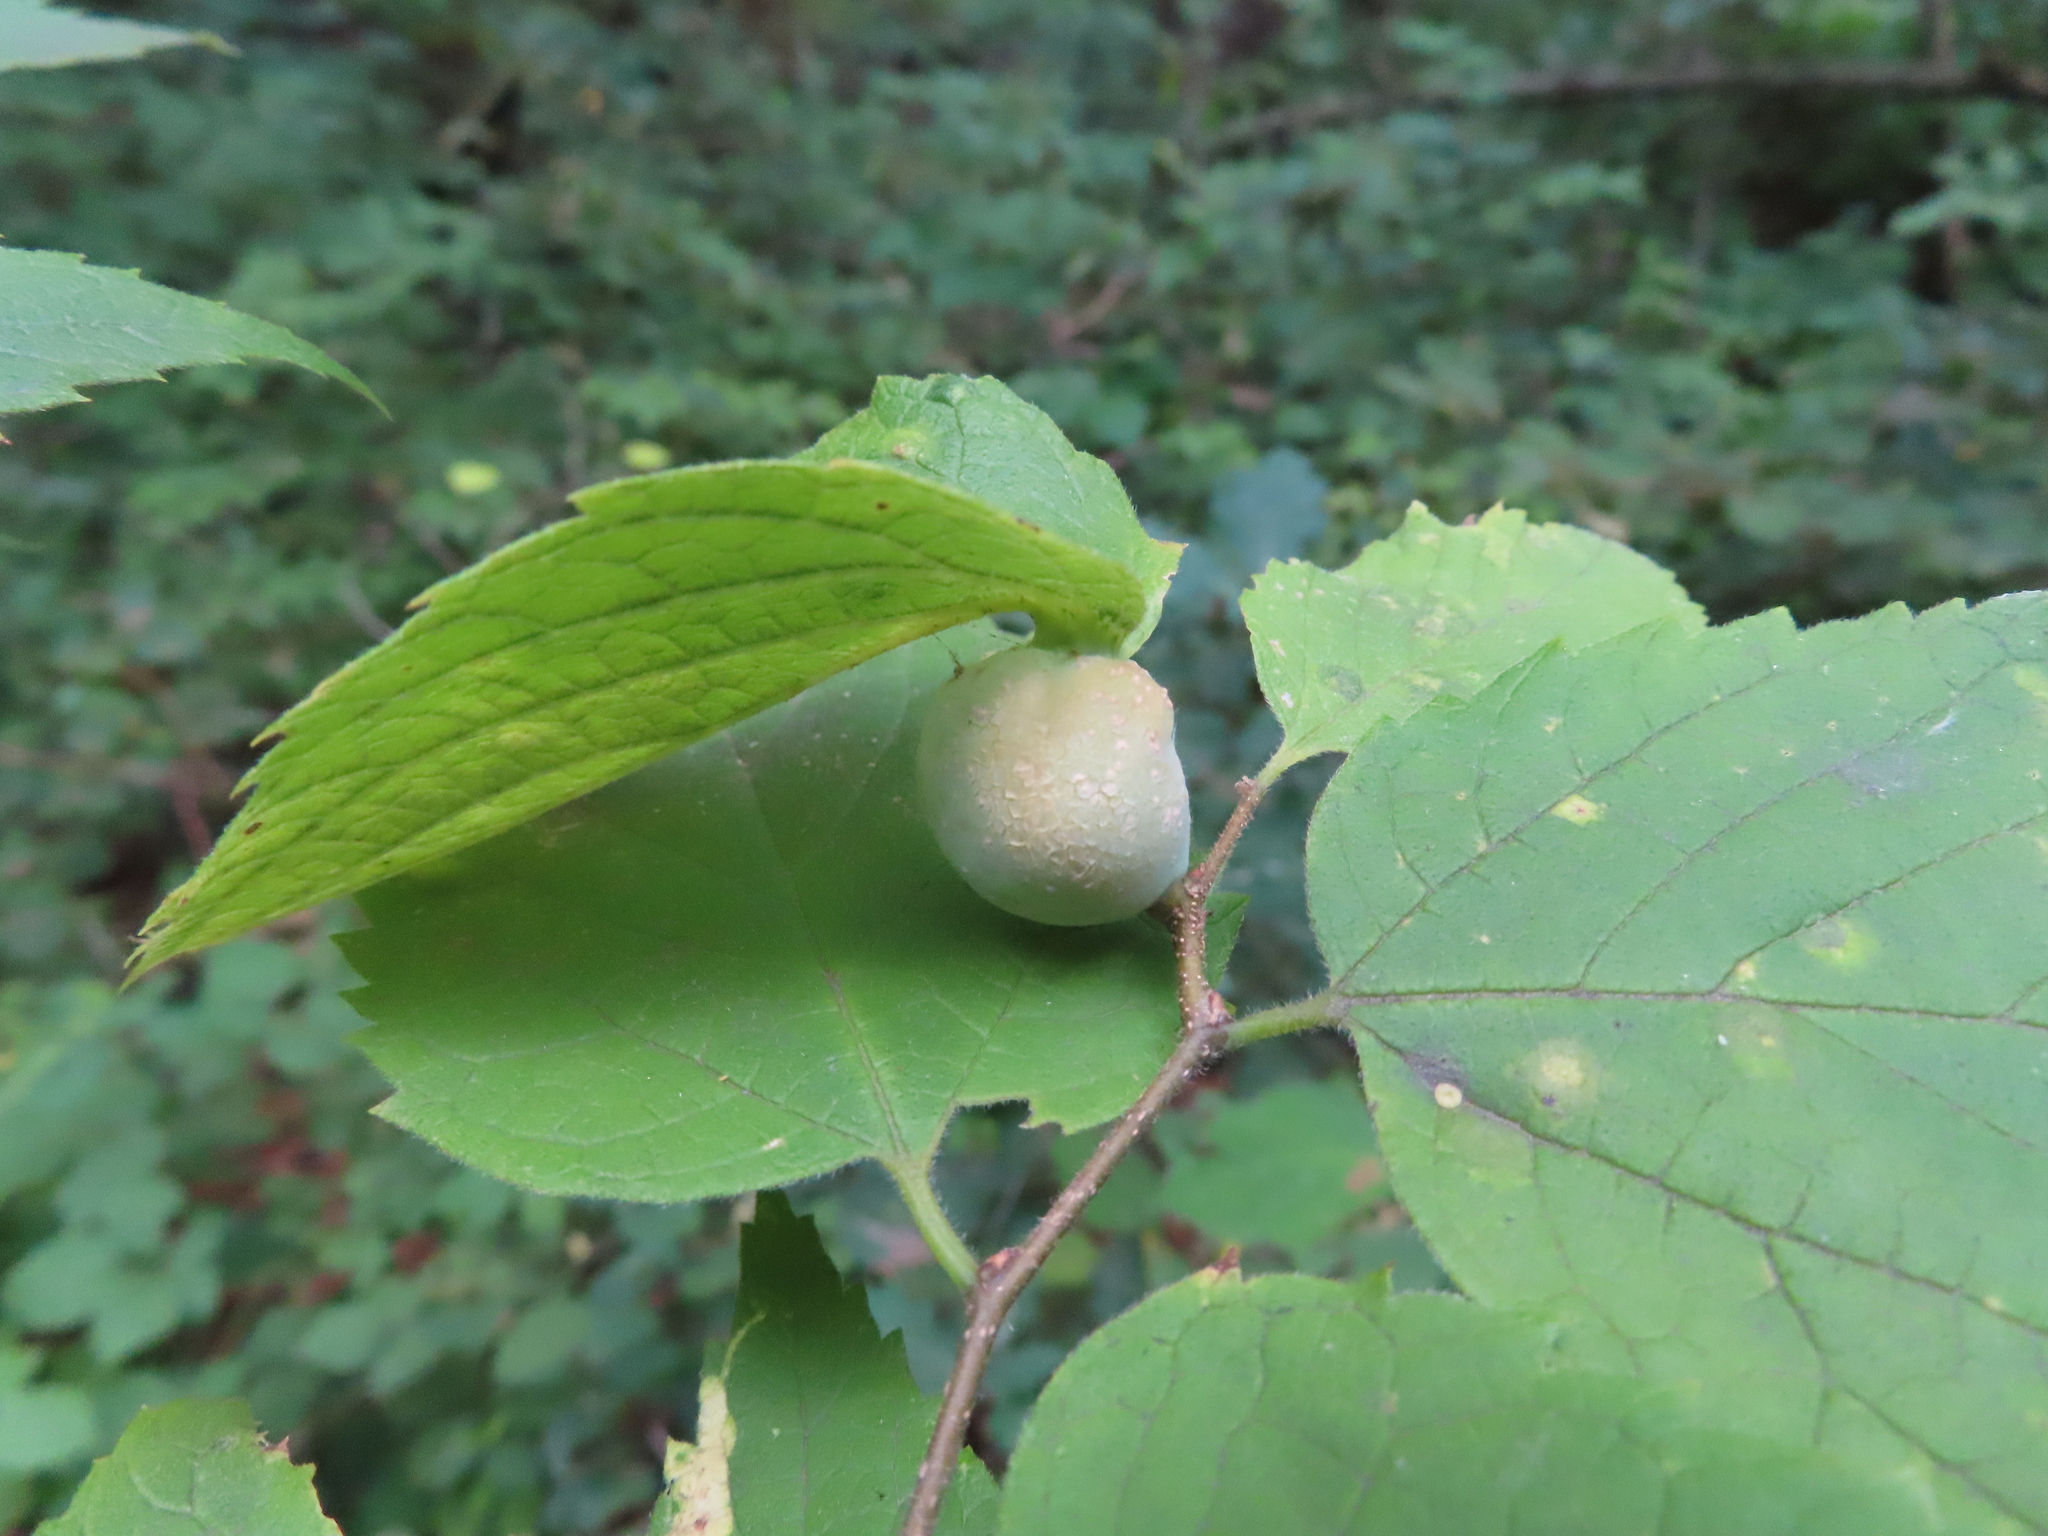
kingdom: Animalia
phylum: Arthropoda
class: Insecta
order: Hemiptera
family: Aphalaridae
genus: Pachypsylla
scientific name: Pachypsylla venusta
